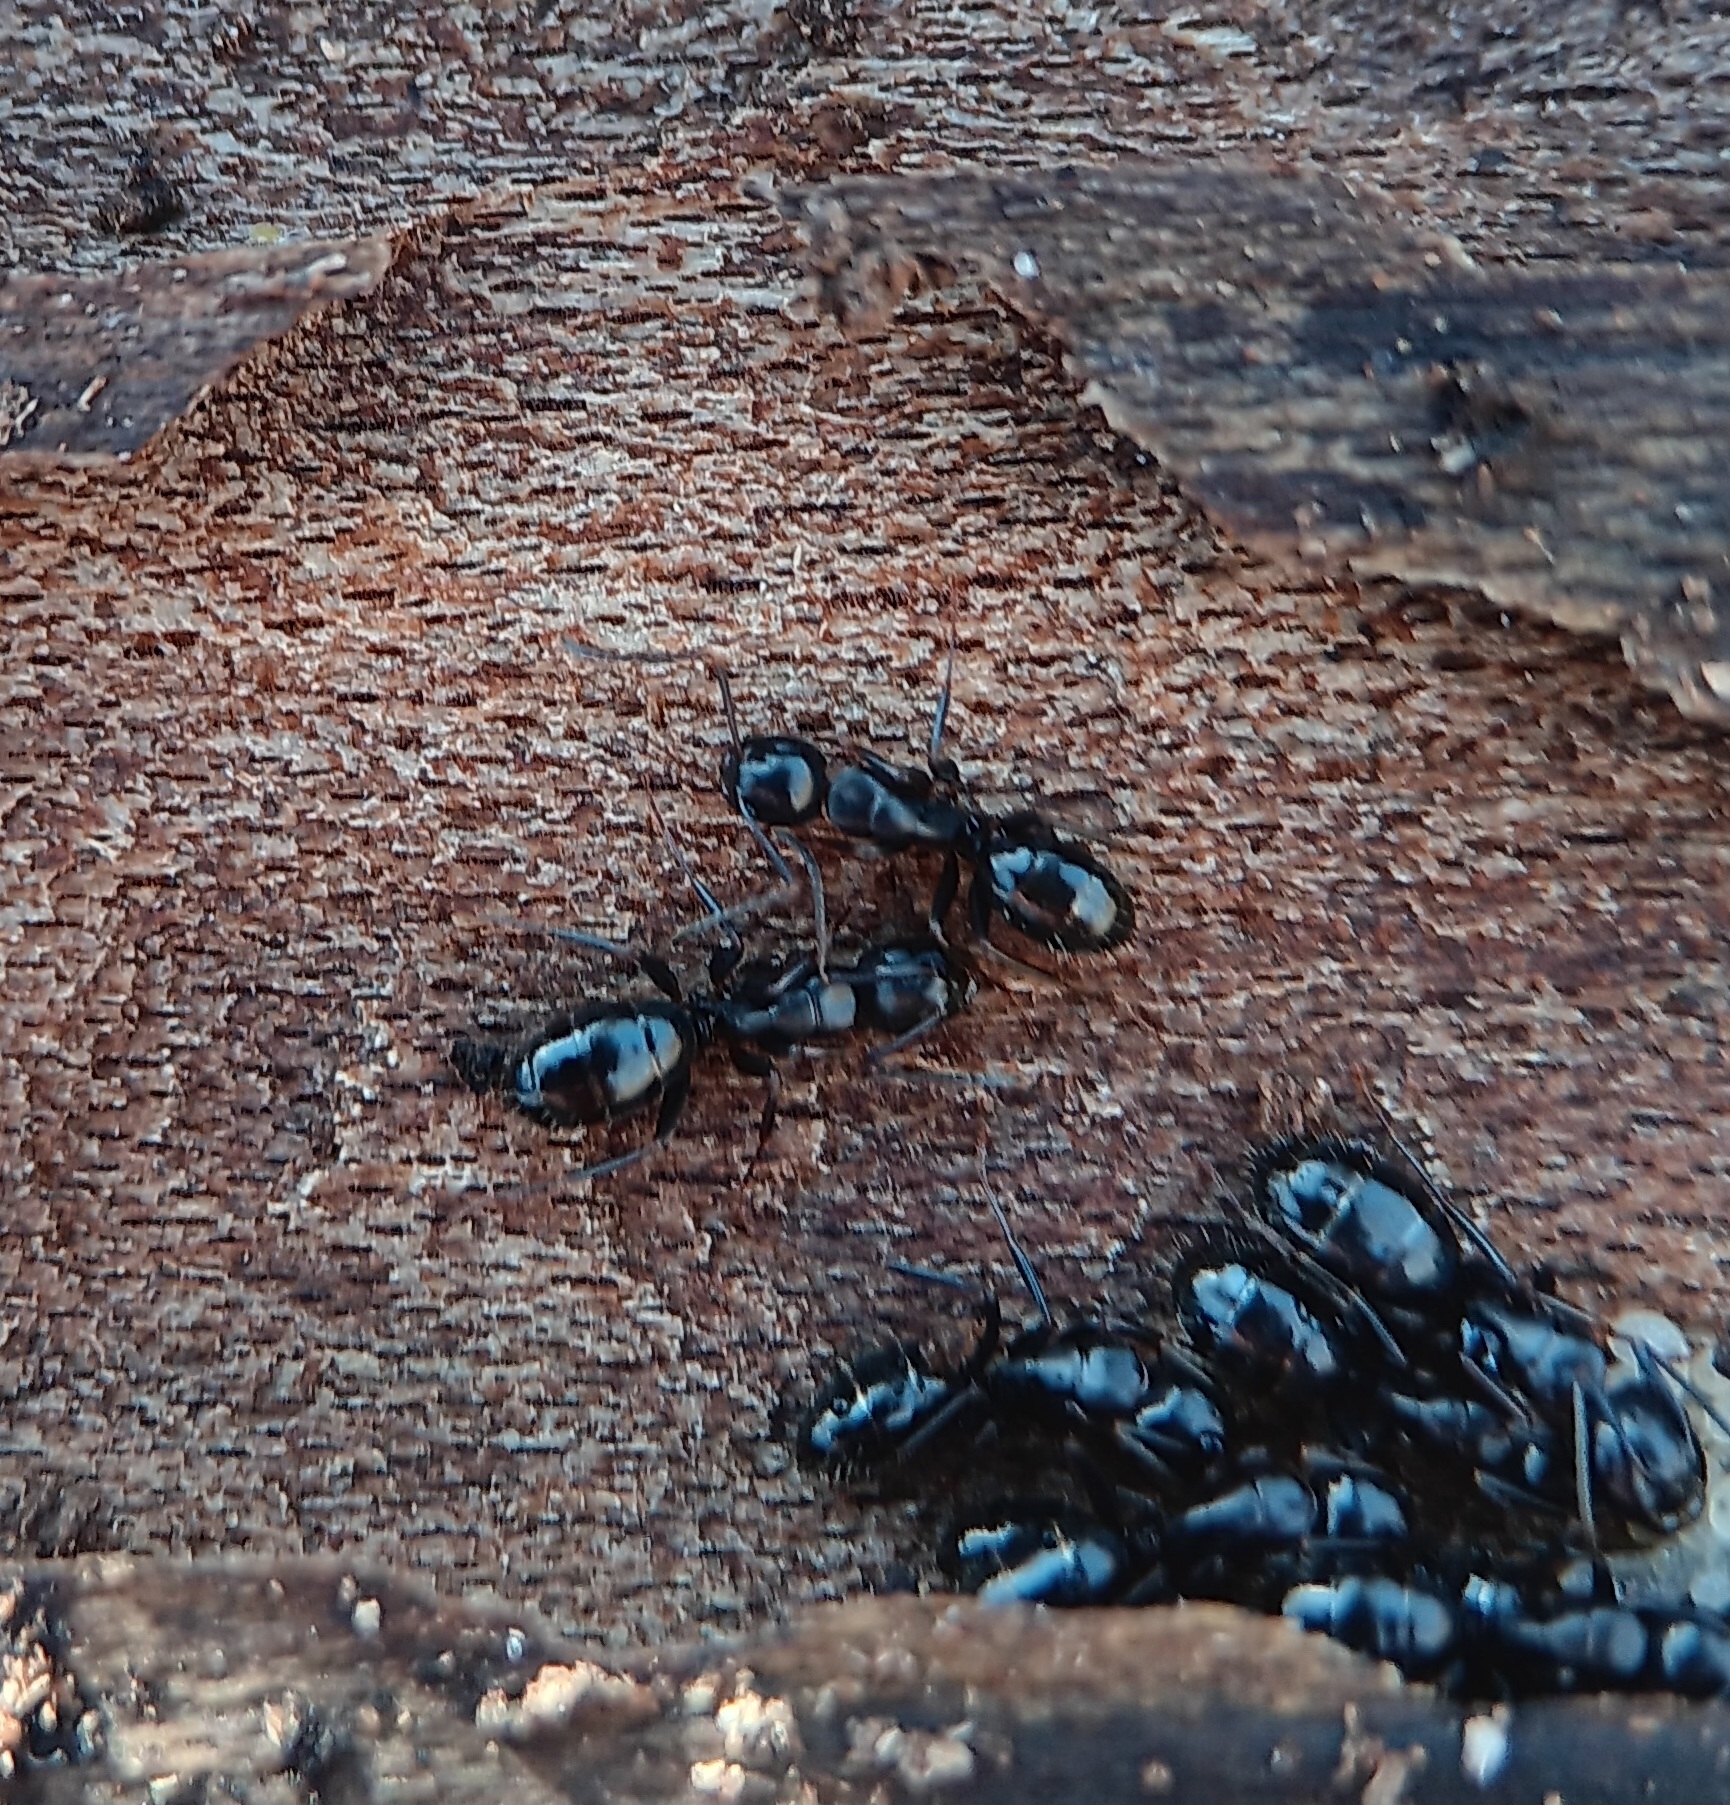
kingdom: Animalia
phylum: Arthropoda
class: Insecta
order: Hymenoptera
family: Formicidae
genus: Camponotus
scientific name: Camponotus nearcticus
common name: Smaller carpenter ant
